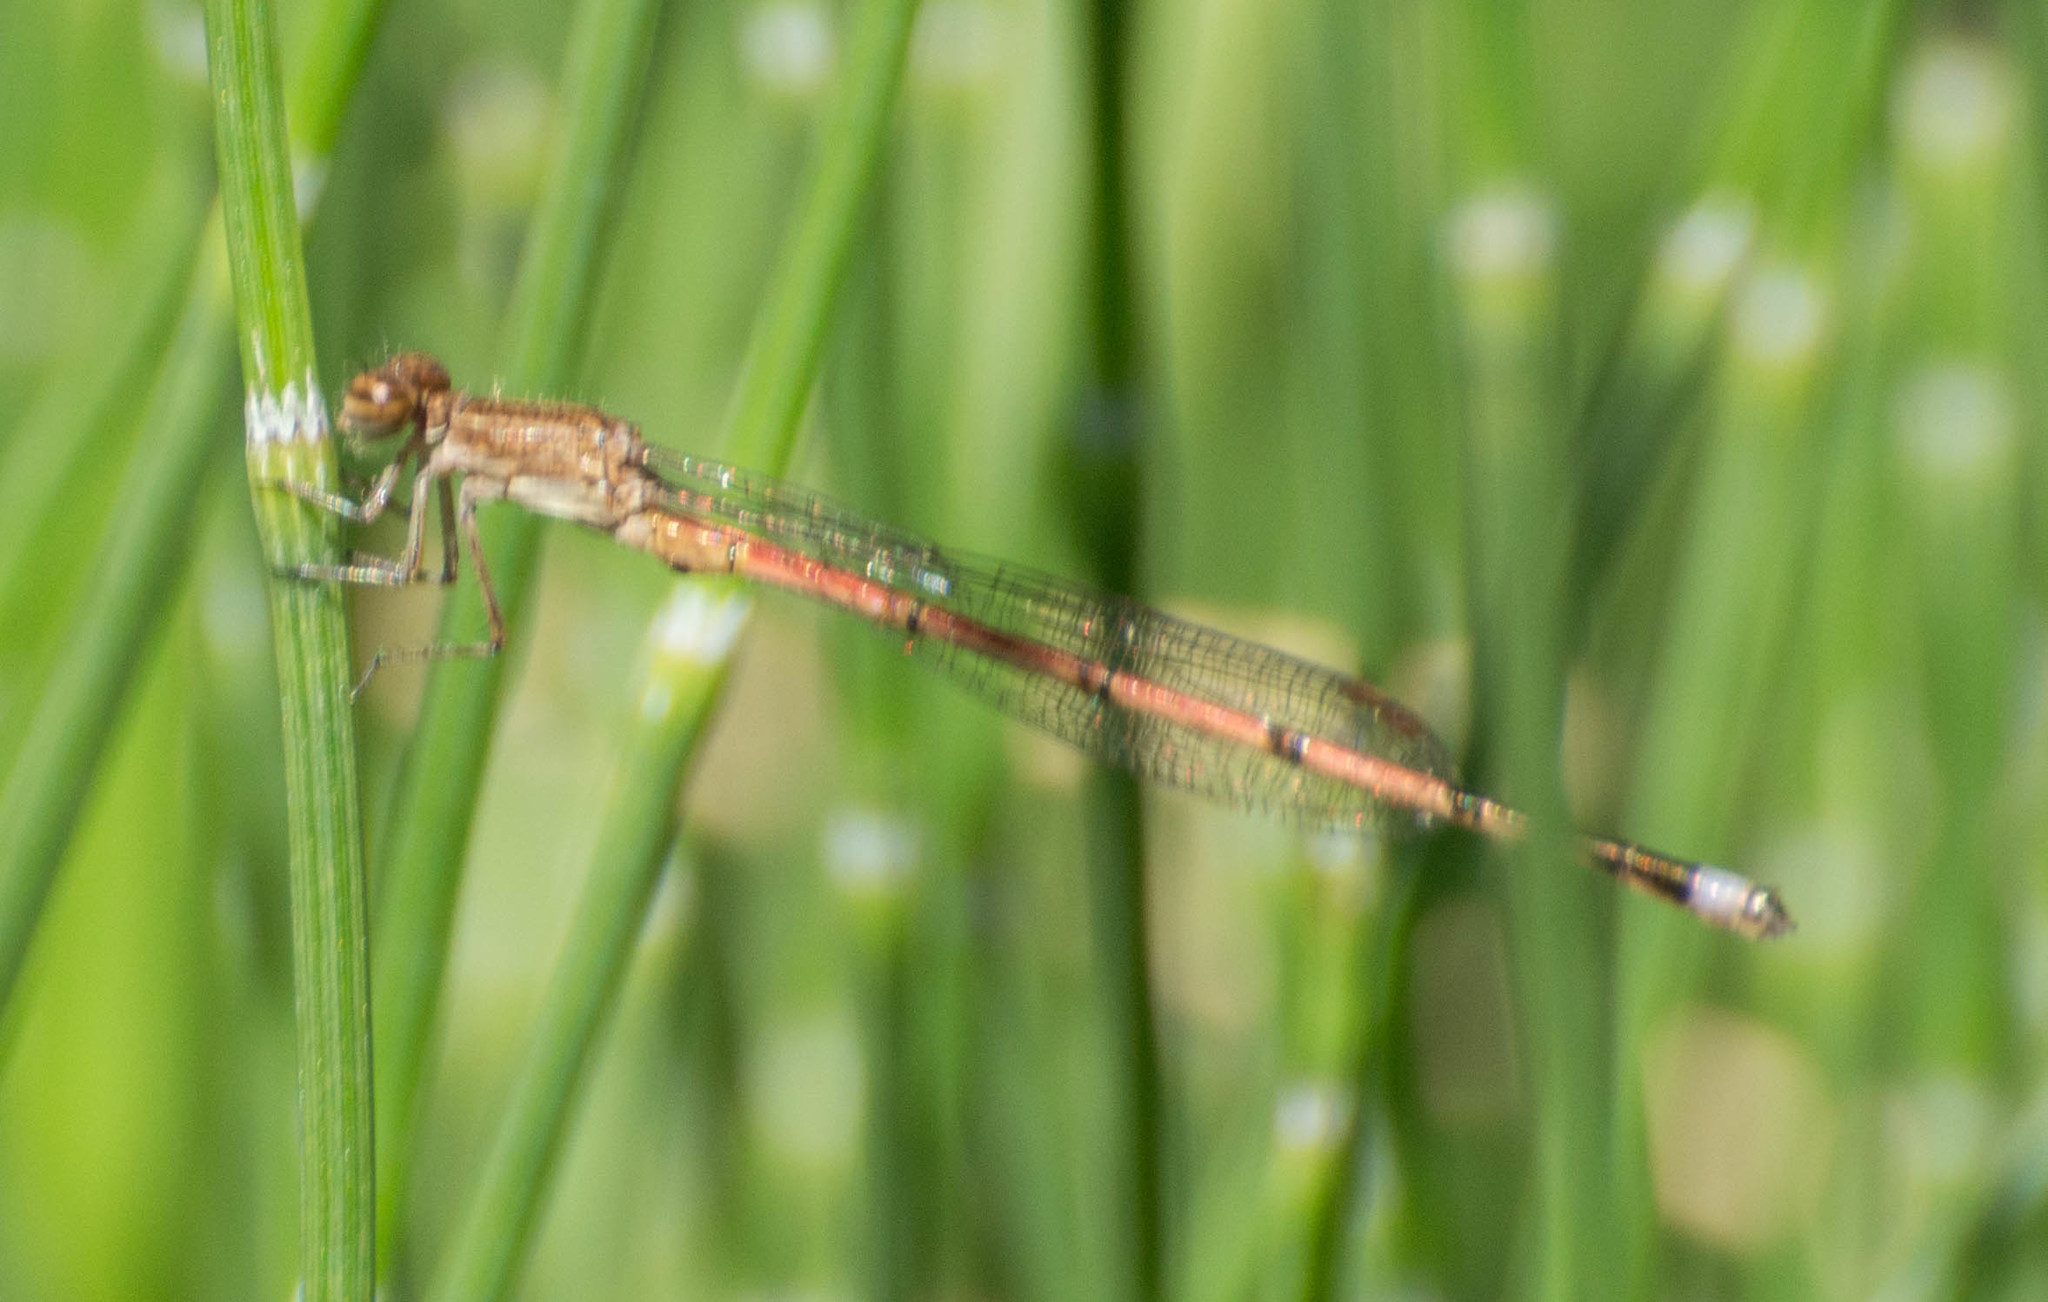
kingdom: Animalia
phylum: Arthropoda
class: Insecta
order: Odonata
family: Coenagrionidae
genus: Oxyagrion
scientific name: Oxyagrion terminale
